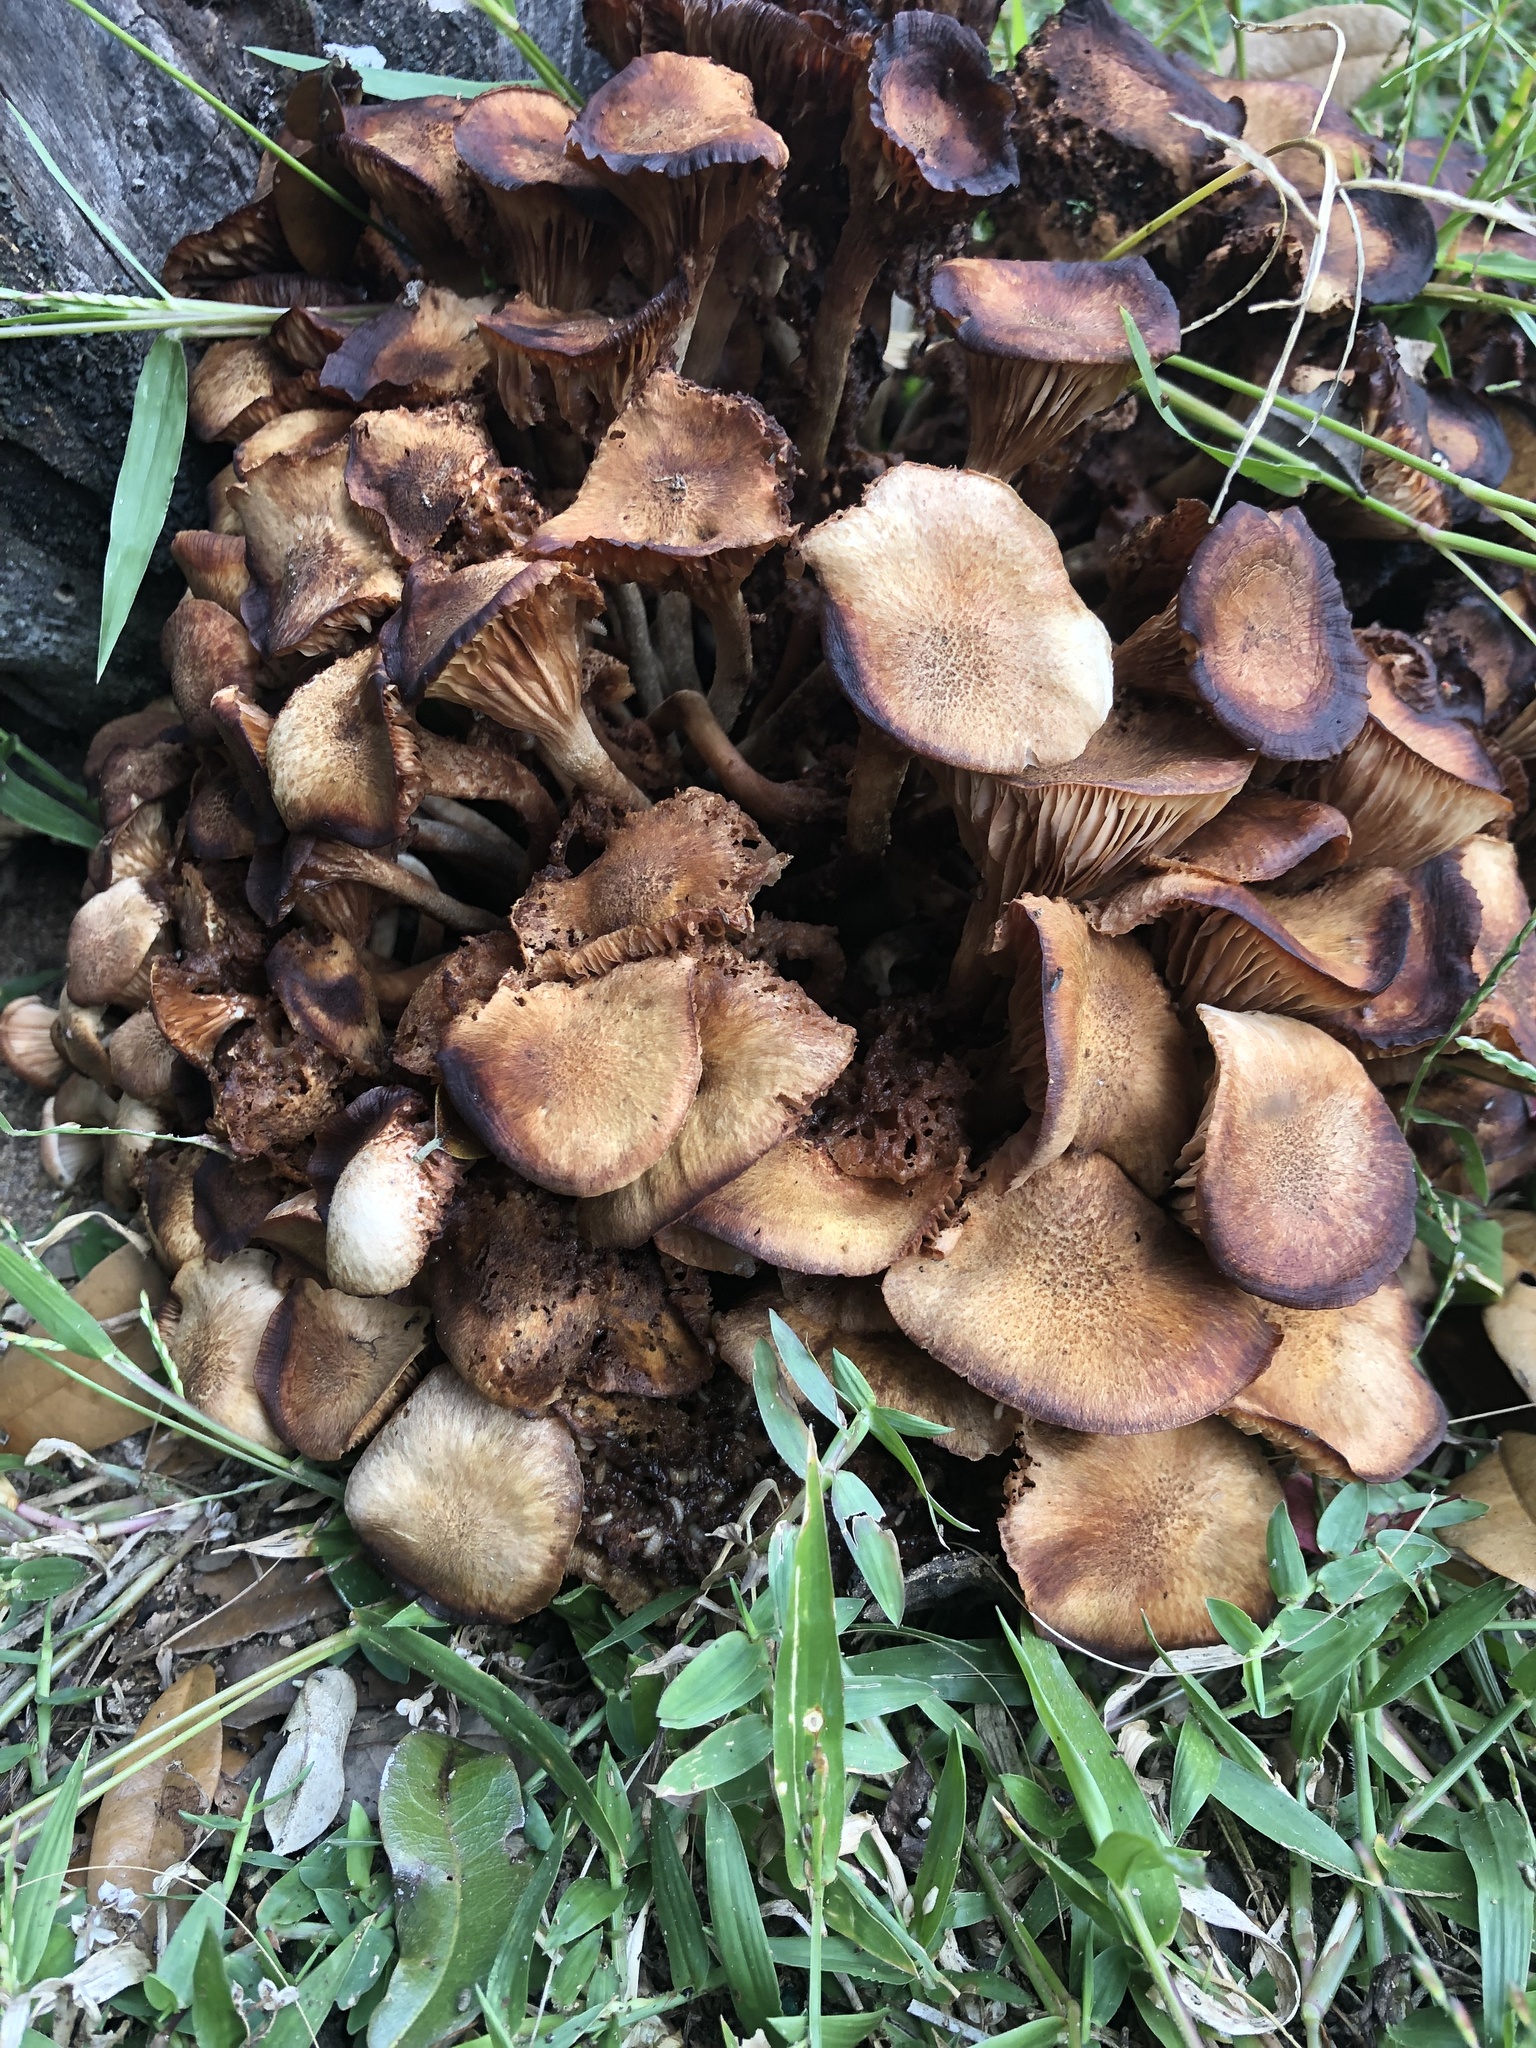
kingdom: Fungi
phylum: Basidiomycota
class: Agaricomycetes
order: Agaricales
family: Physalacriaceae
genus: Desarmillaria
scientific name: Desarmillaria caespitosa
